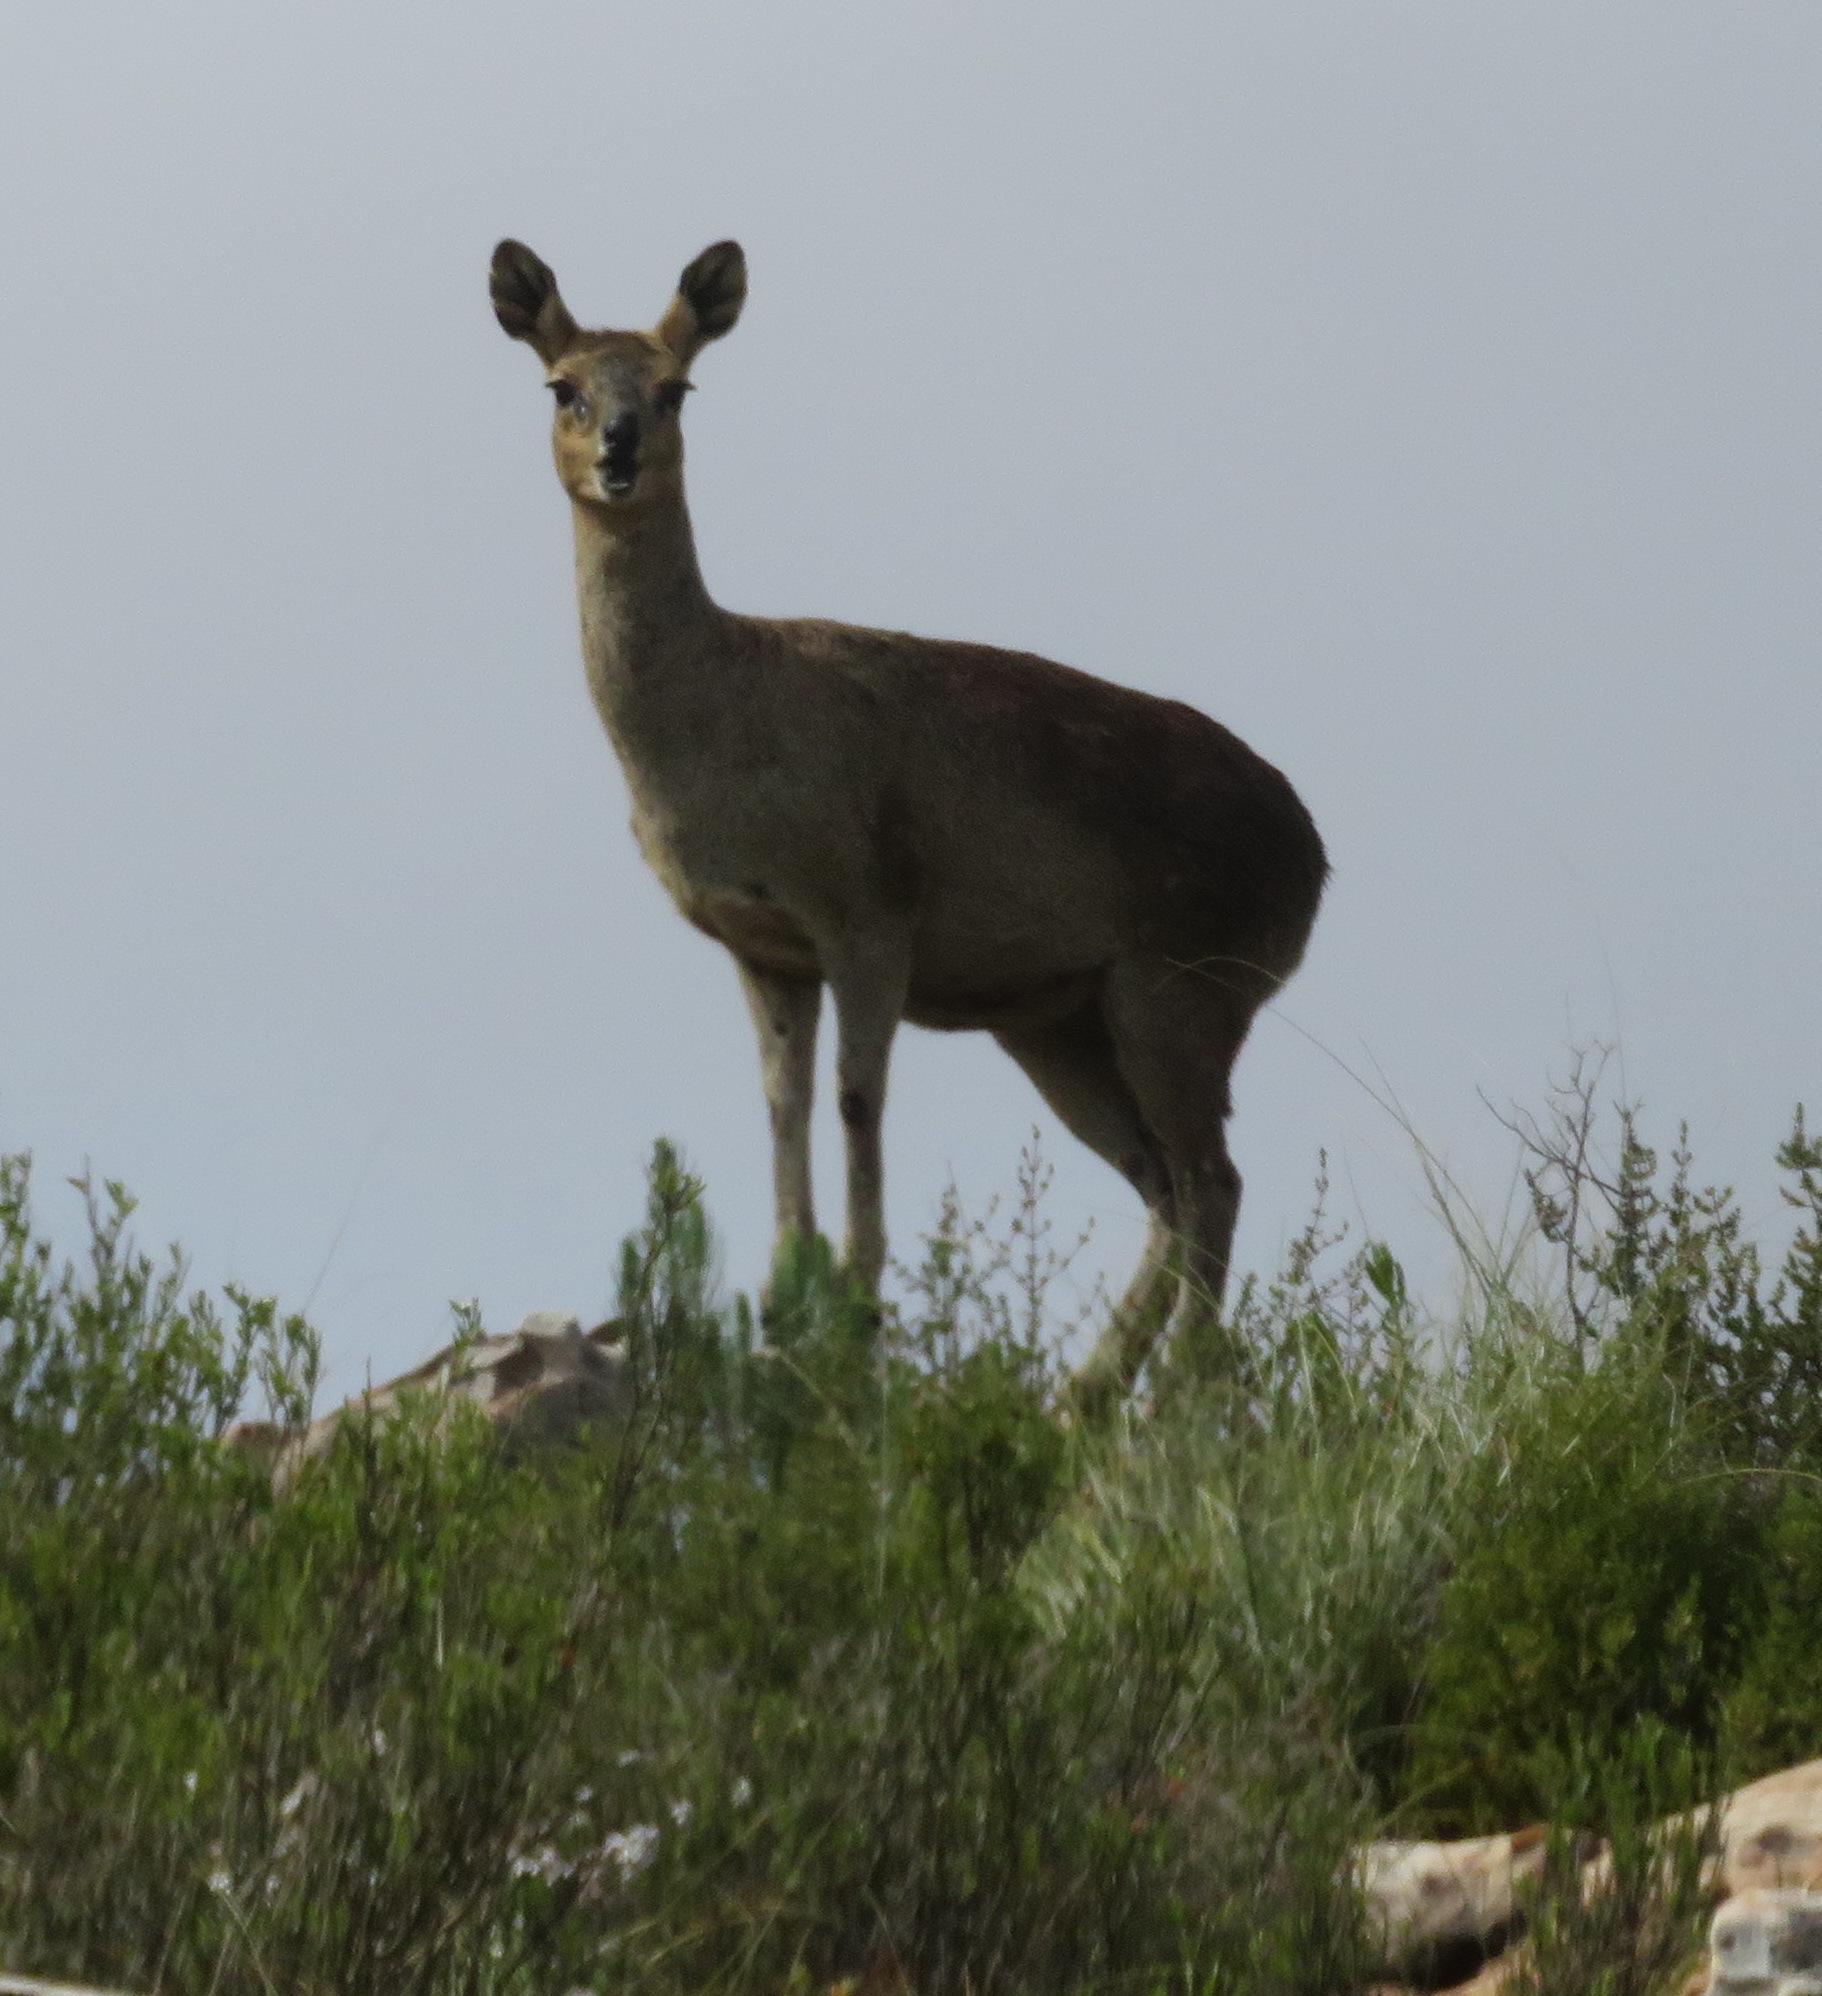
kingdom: Animalia
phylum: Chordata
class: Mammalia
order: Artiodactyla
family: Bovidae
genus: Oreotragus
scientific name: Oreotragus oreotragus
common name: Klipspringer
